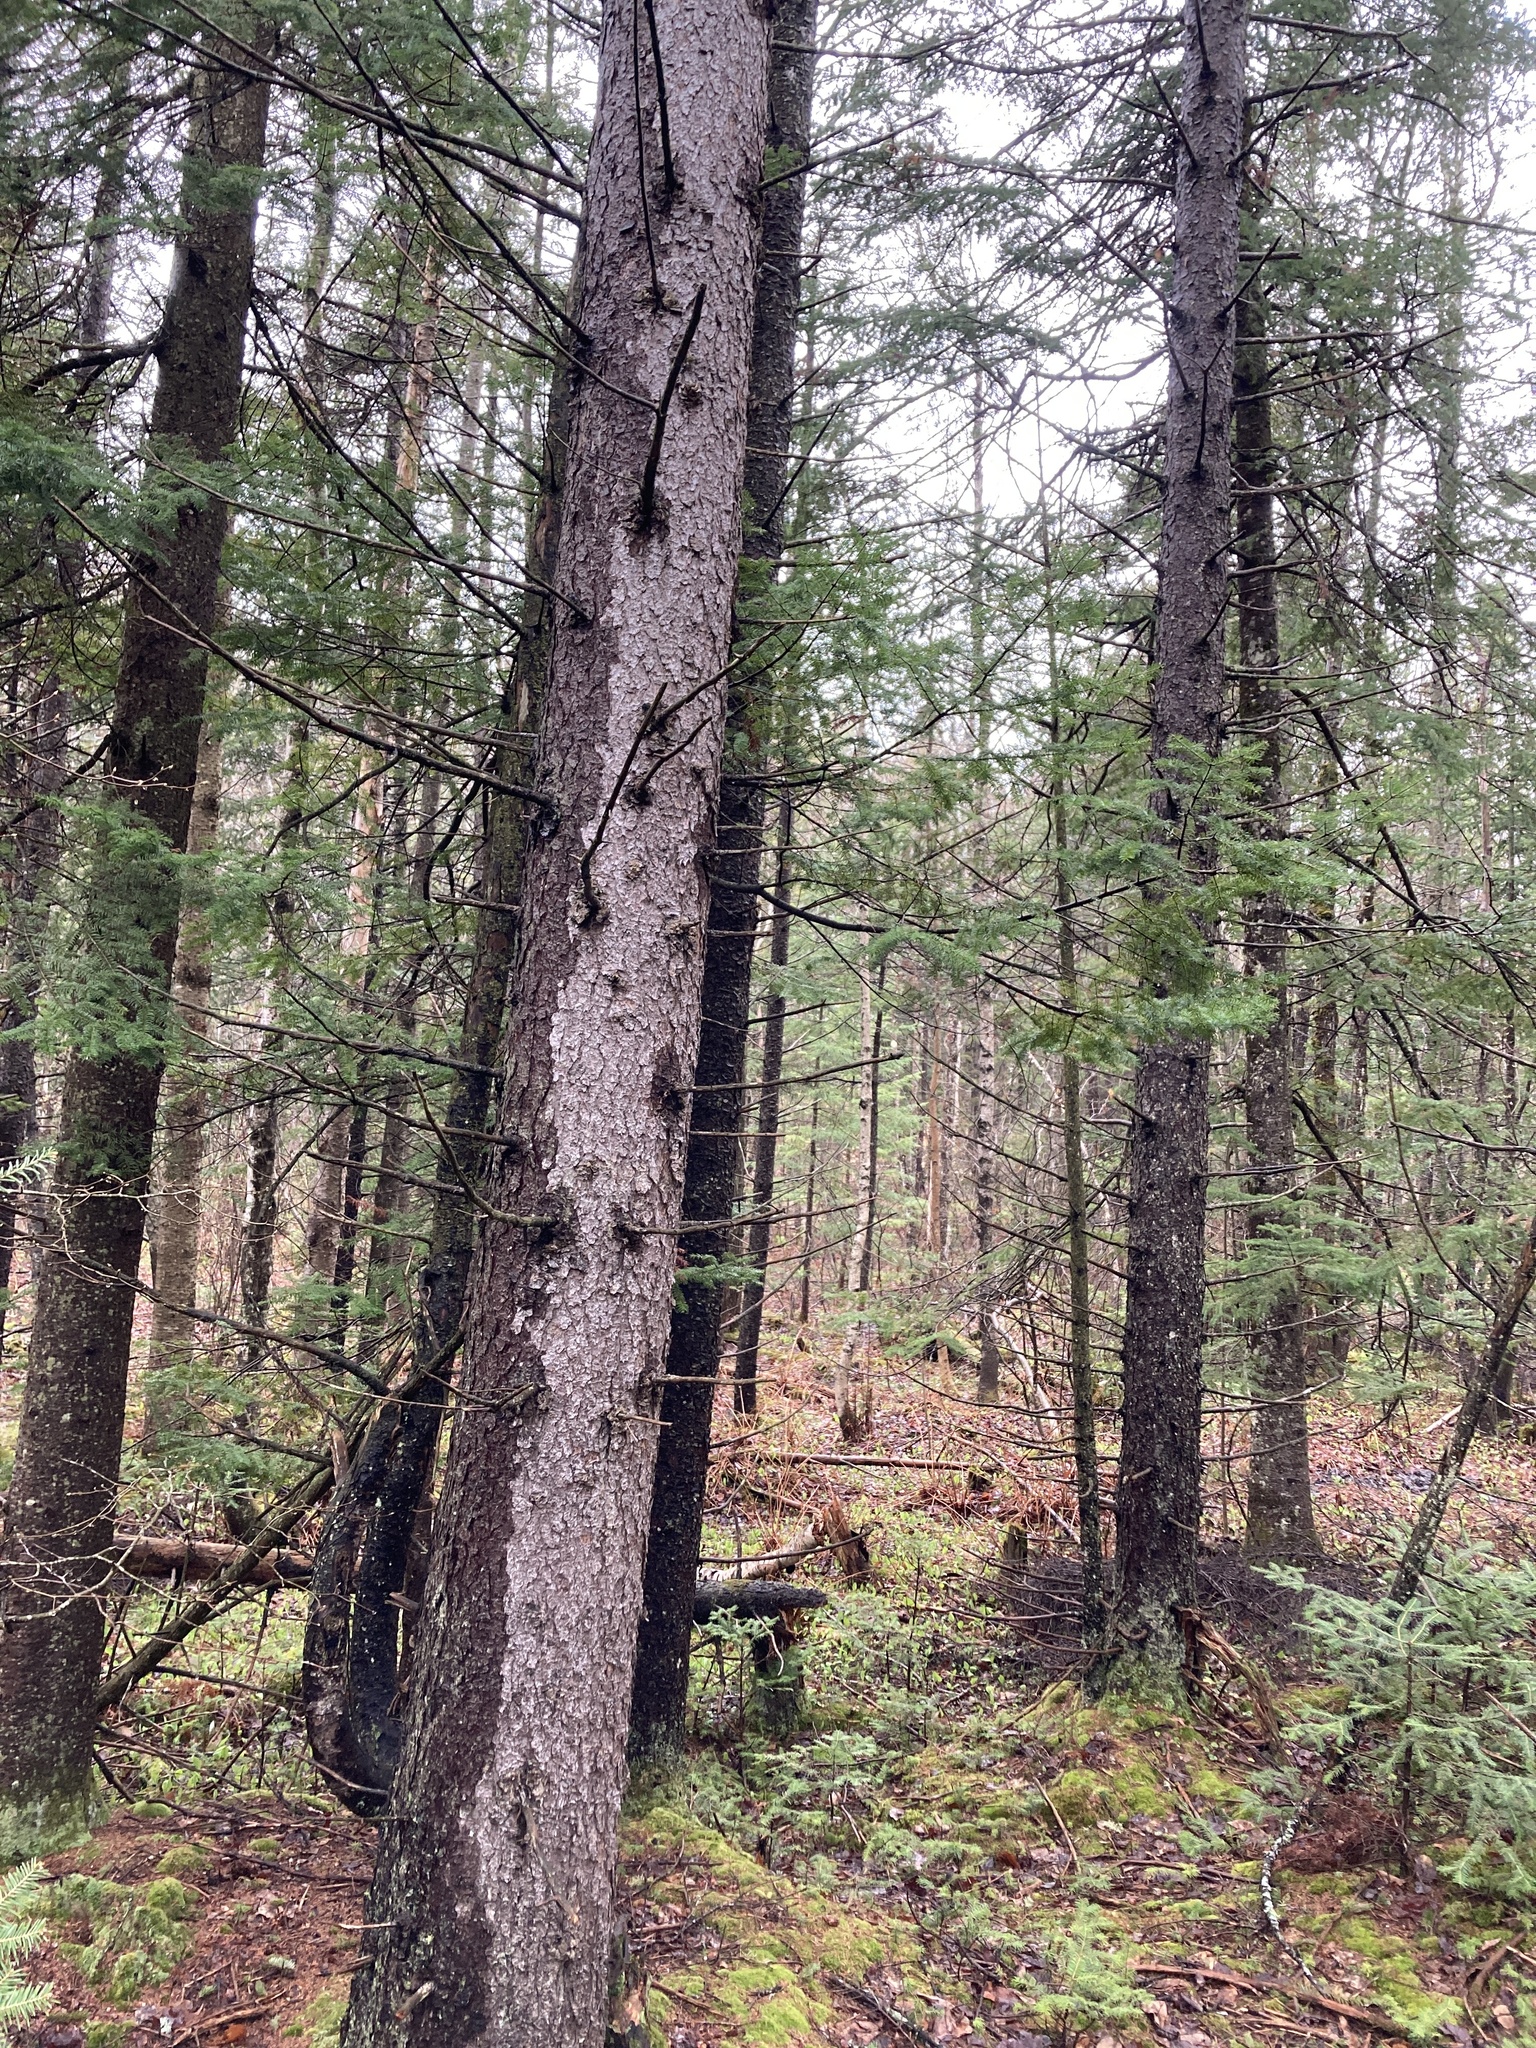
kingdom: Plantae
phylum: Tracheophyta
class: Pinopsida
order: Pinales
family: Pinaceae
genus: Picea
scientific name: Picea rubens
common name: Red spruce
